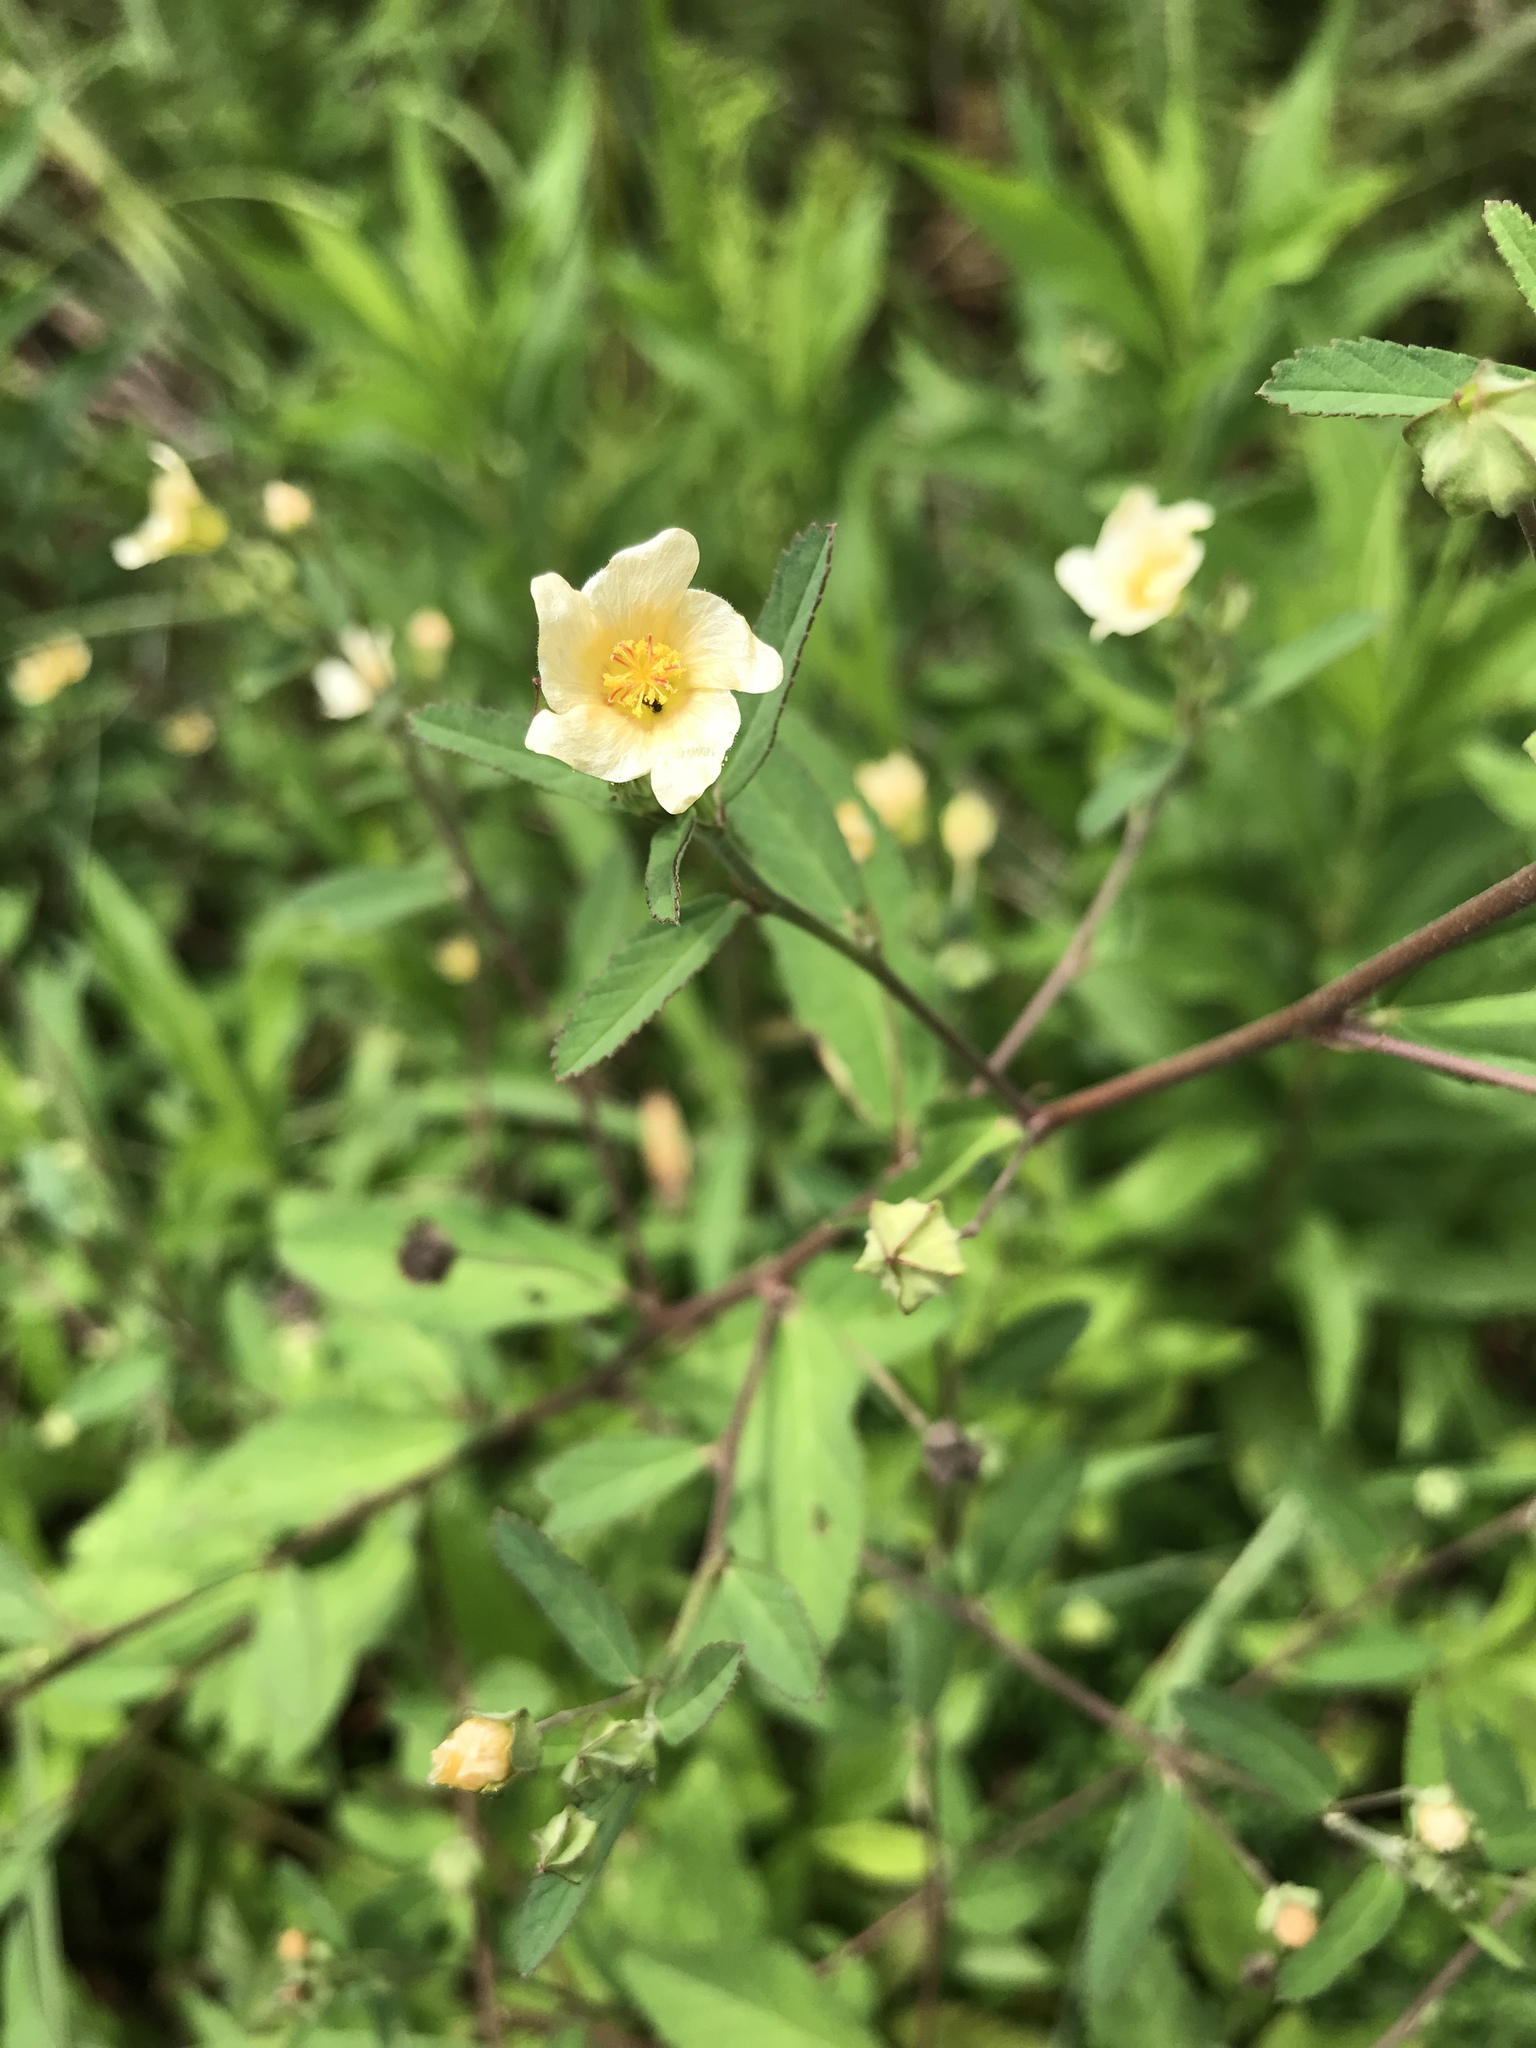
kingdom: Plantae
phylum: Tracheophyta
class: Magnoliopsida
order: Malvales
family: Malvaceae
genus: Sida
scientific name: Sida rhombifolia
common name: Queensland-hemp
